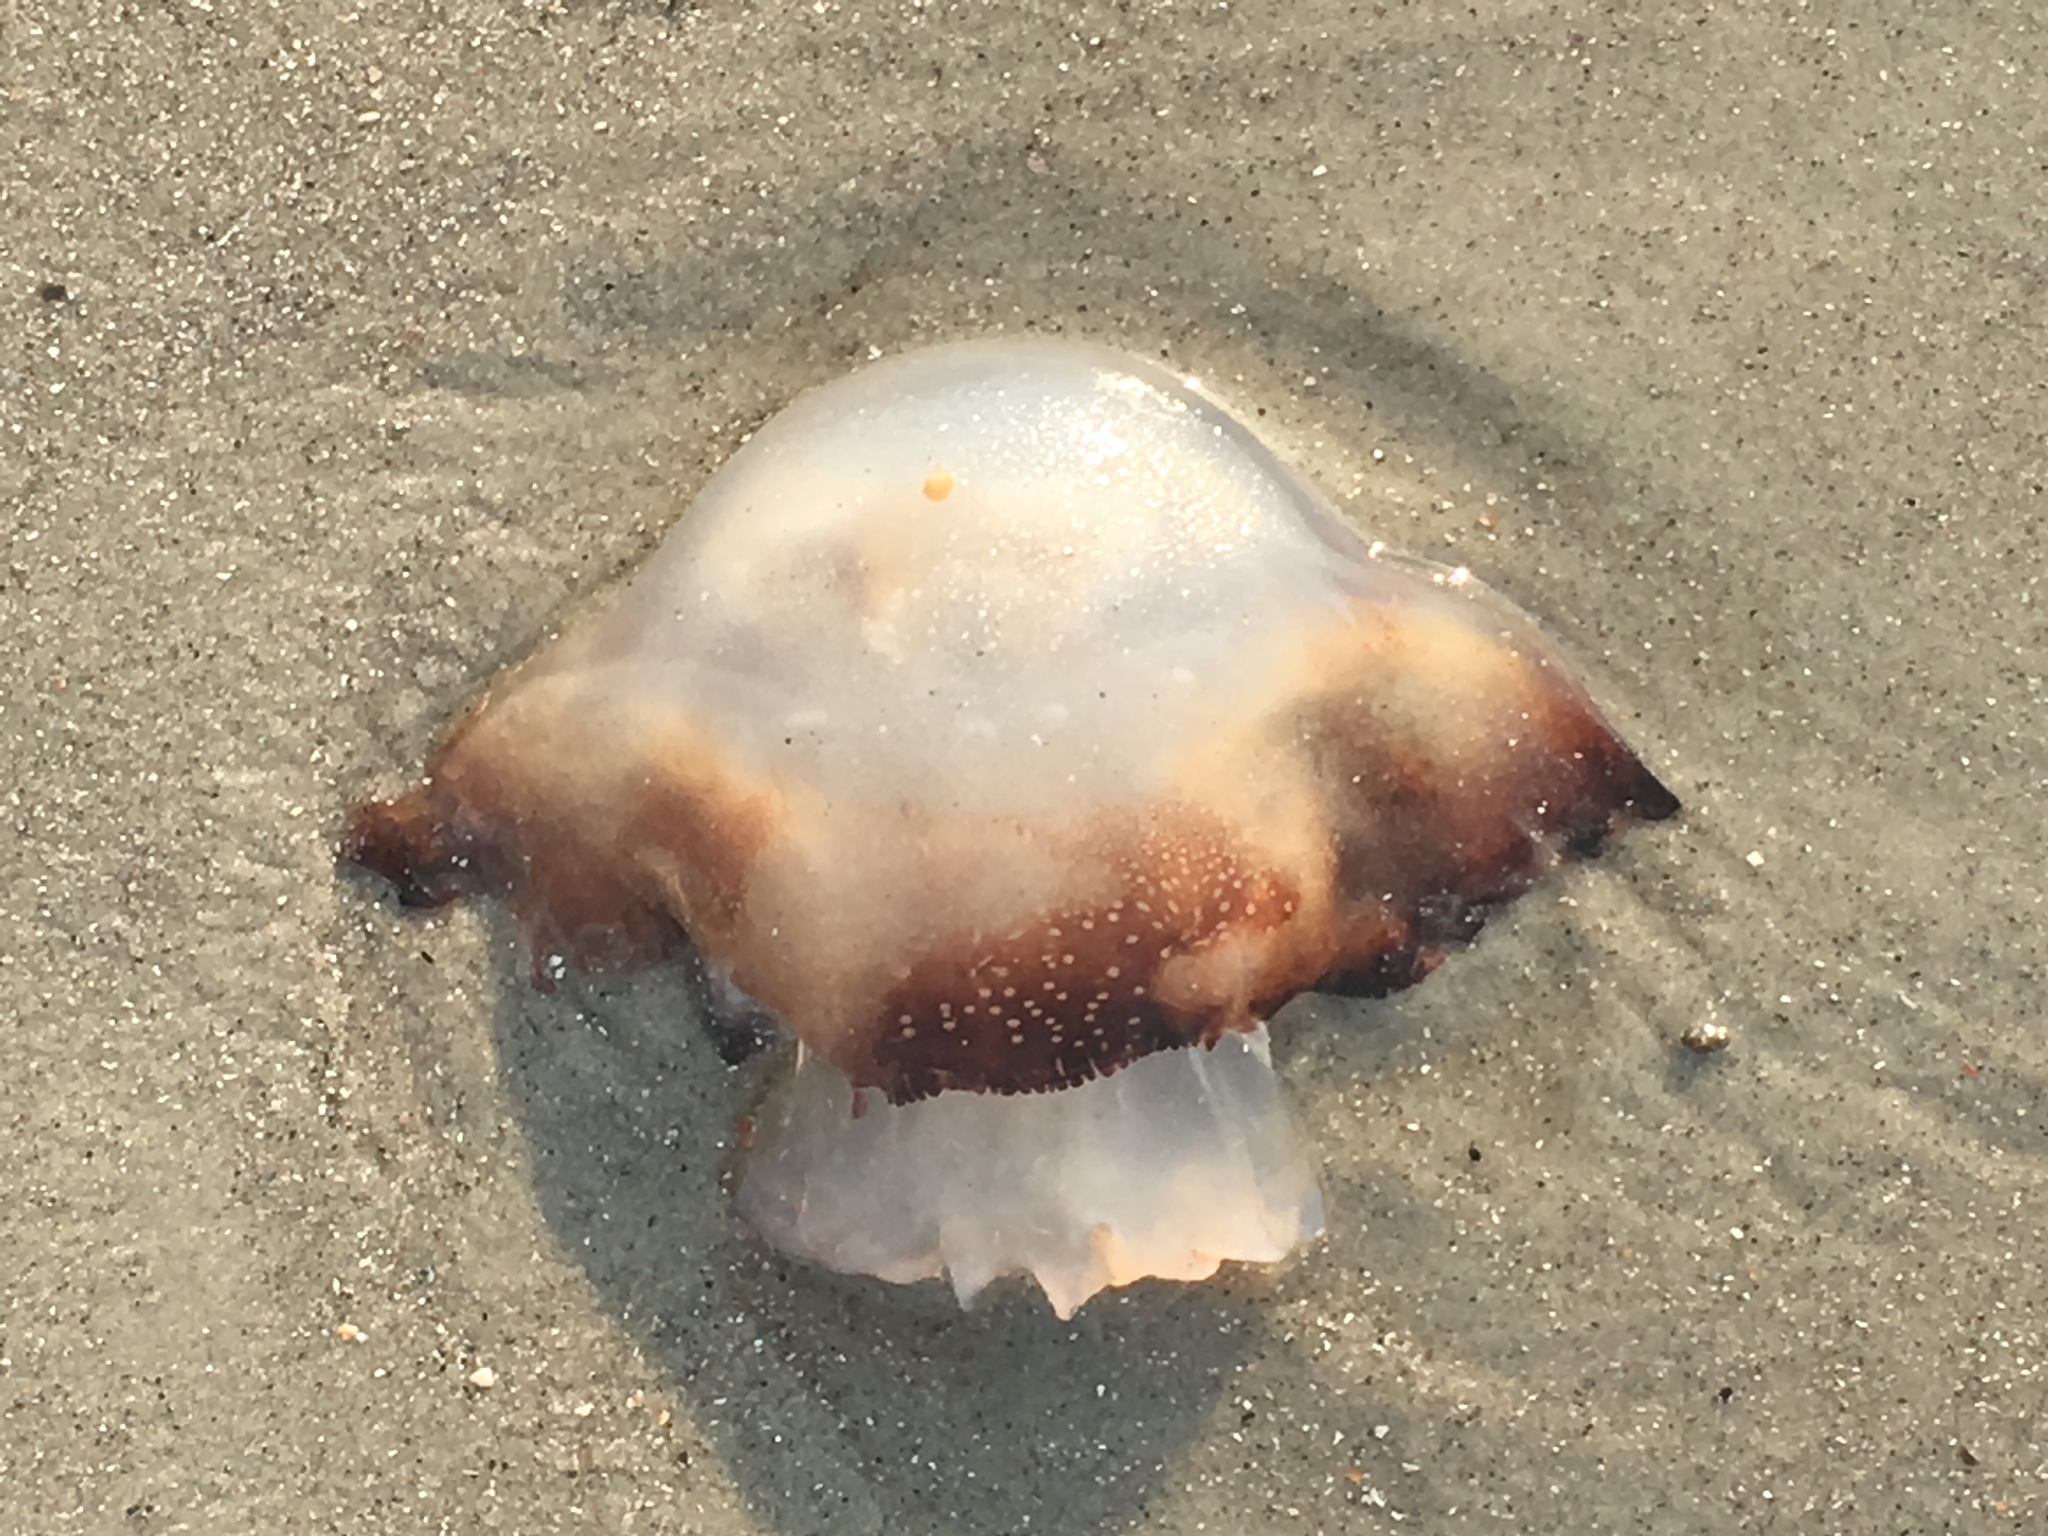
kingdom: Animalia
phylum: Cnidaria
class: Scyphozoa
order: Rhizostomeae
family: Stomolophidae
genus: Stomolophus
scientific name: Stomolophus meleagris
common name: Cabbagehead
